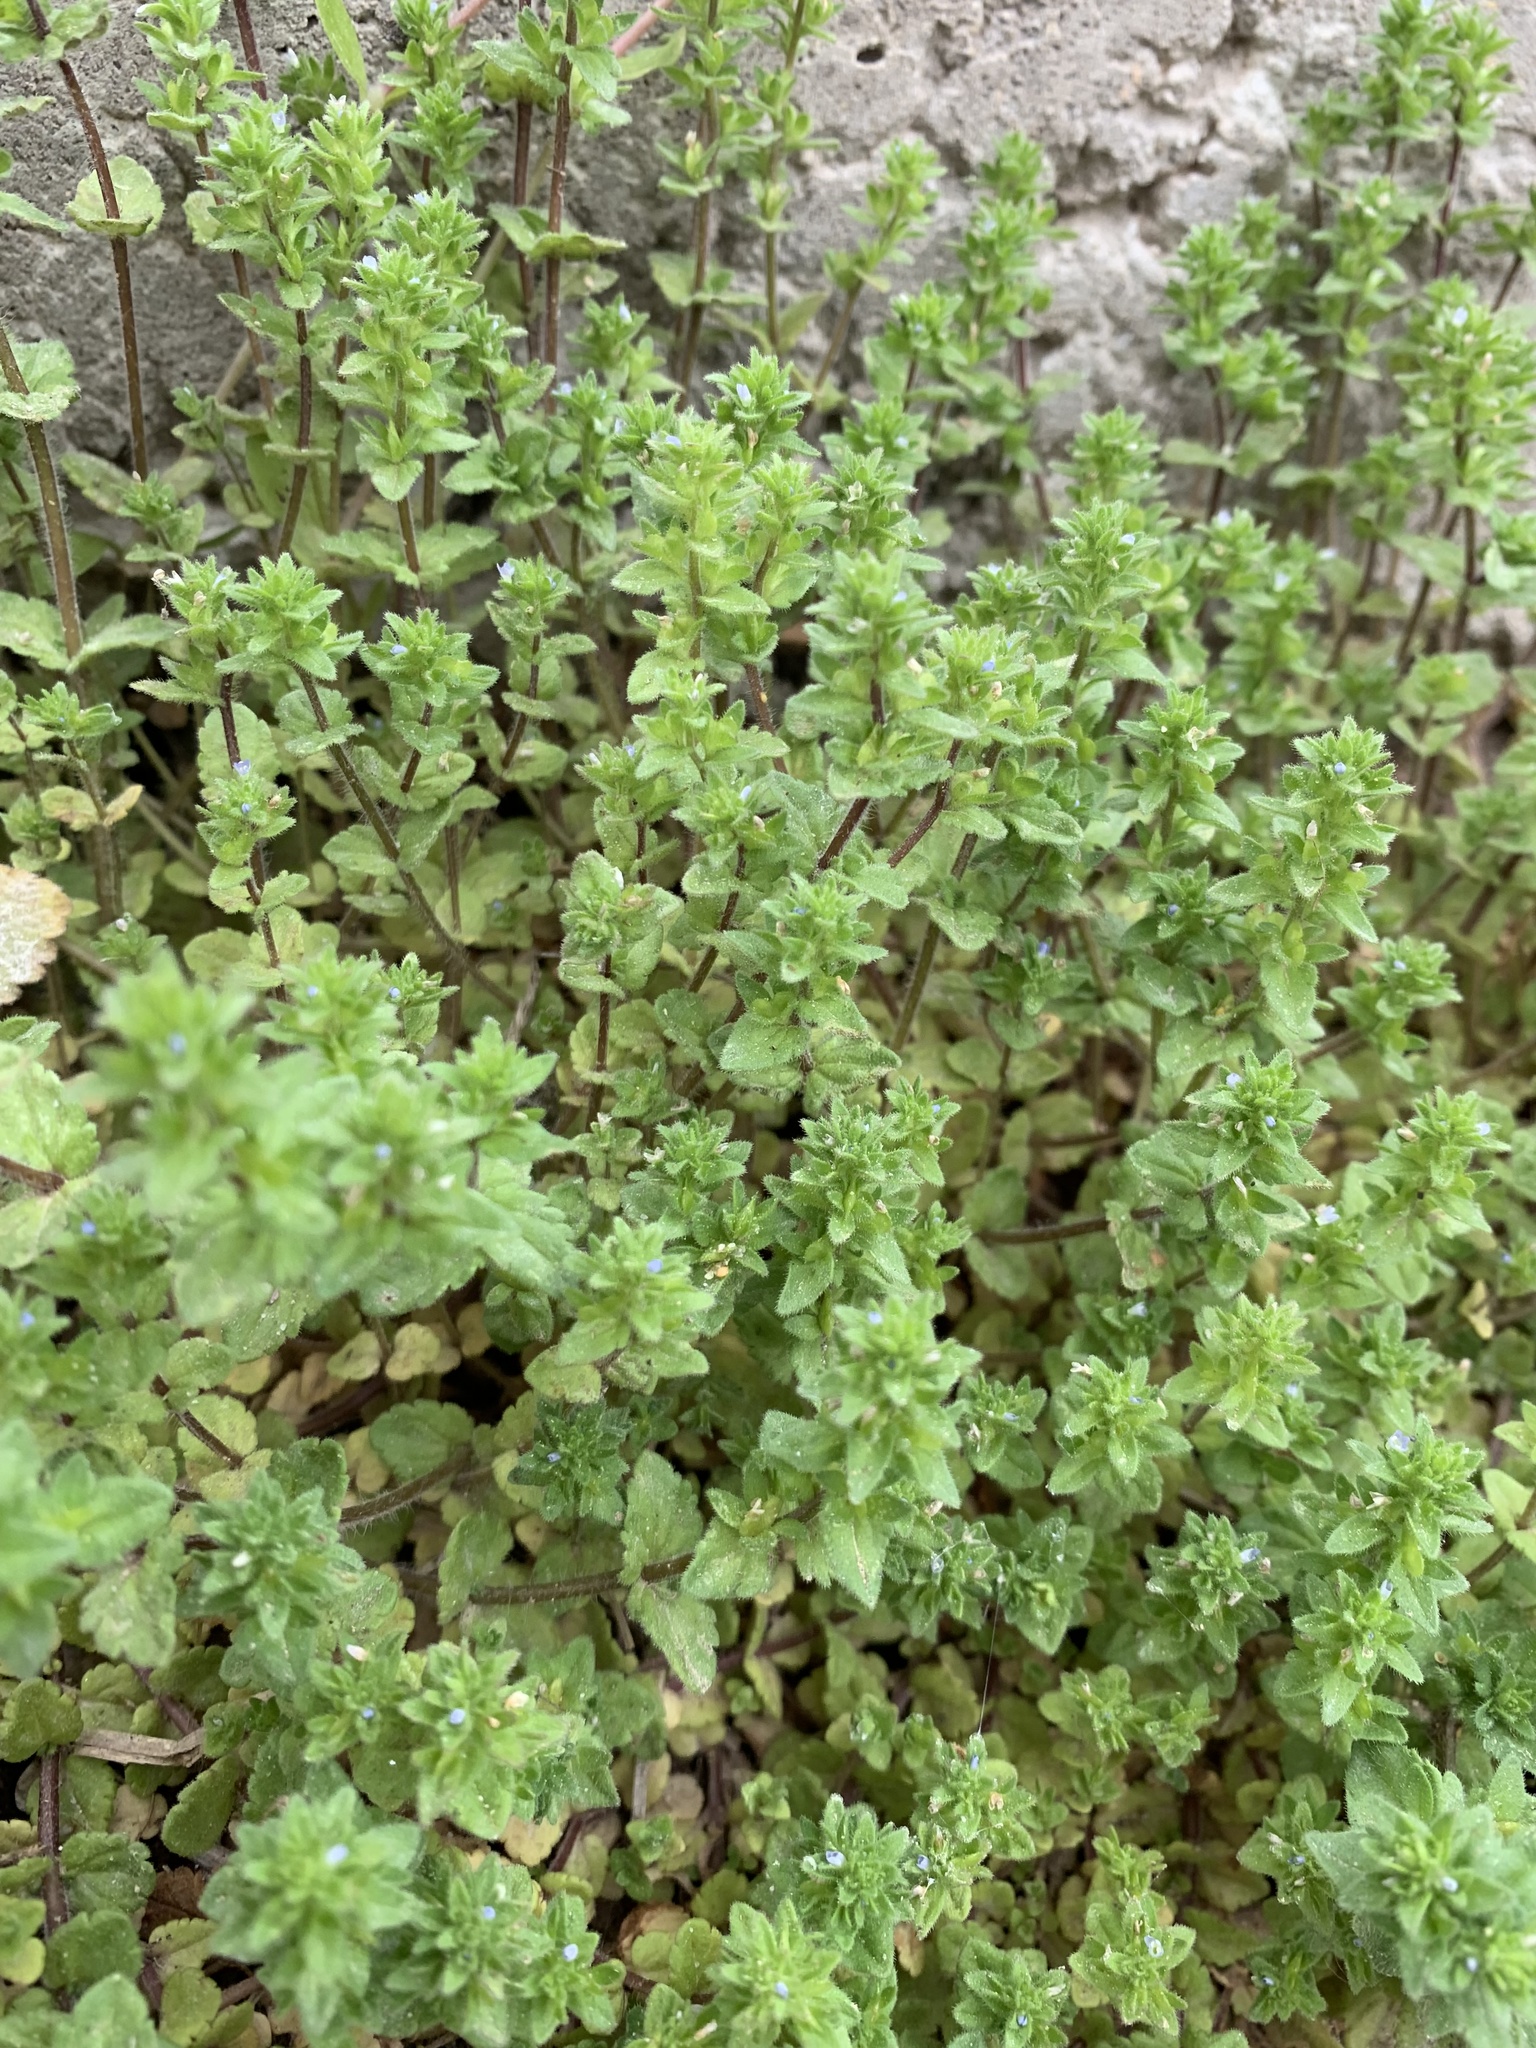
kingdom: Plantae
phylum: Tracheophyta
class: Magnoliopsida
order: Lamiales
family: Plantaginaceae
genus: Veronica
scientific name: Veronica arvensis
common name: Corn speedwell
